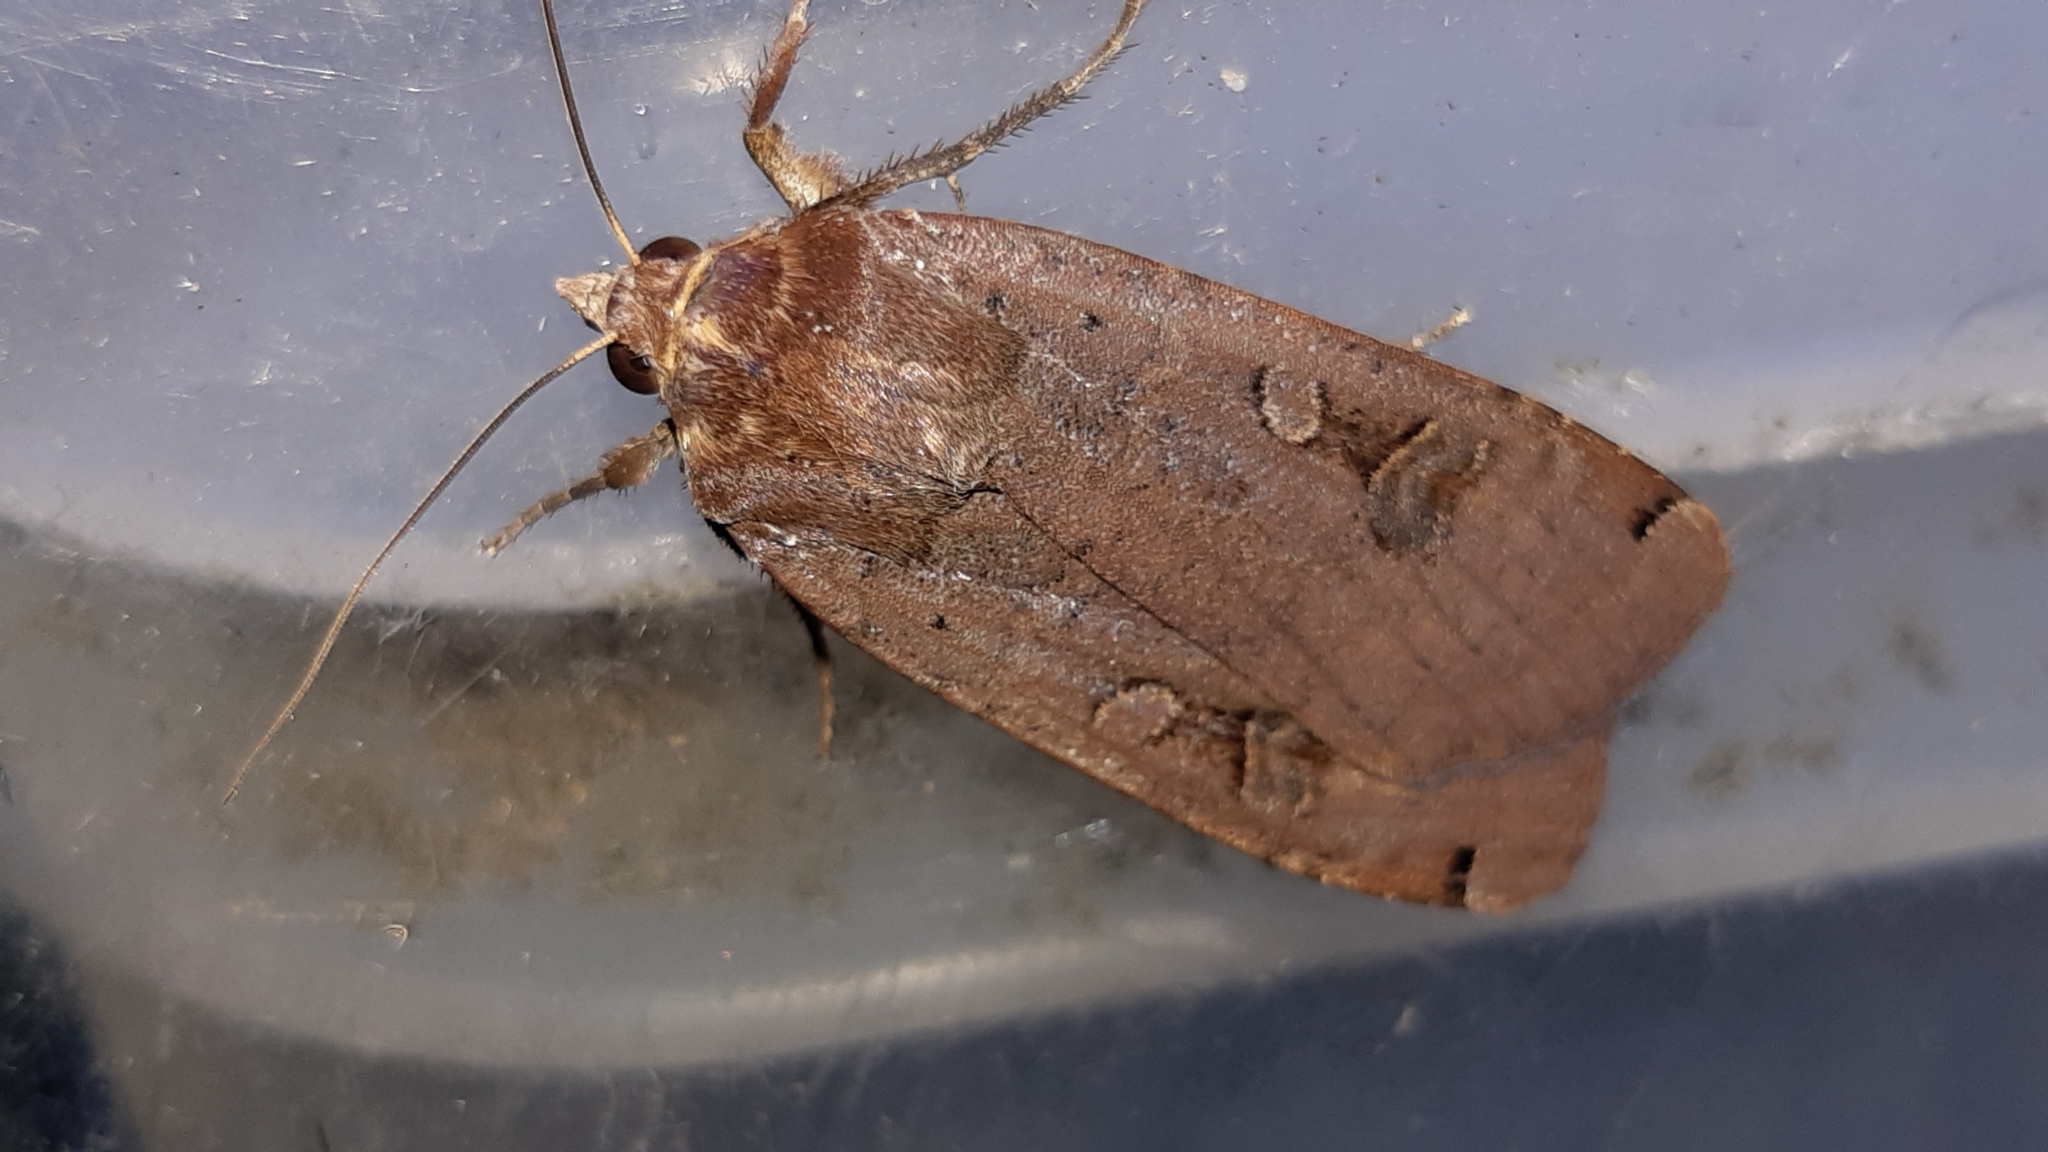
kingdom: Animalia
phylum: Arthropoda
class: Insecta
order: Lepidoptera
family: Noctuidae
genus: Noctua
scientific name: Noctua pronuba
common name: Large yellow underwing
